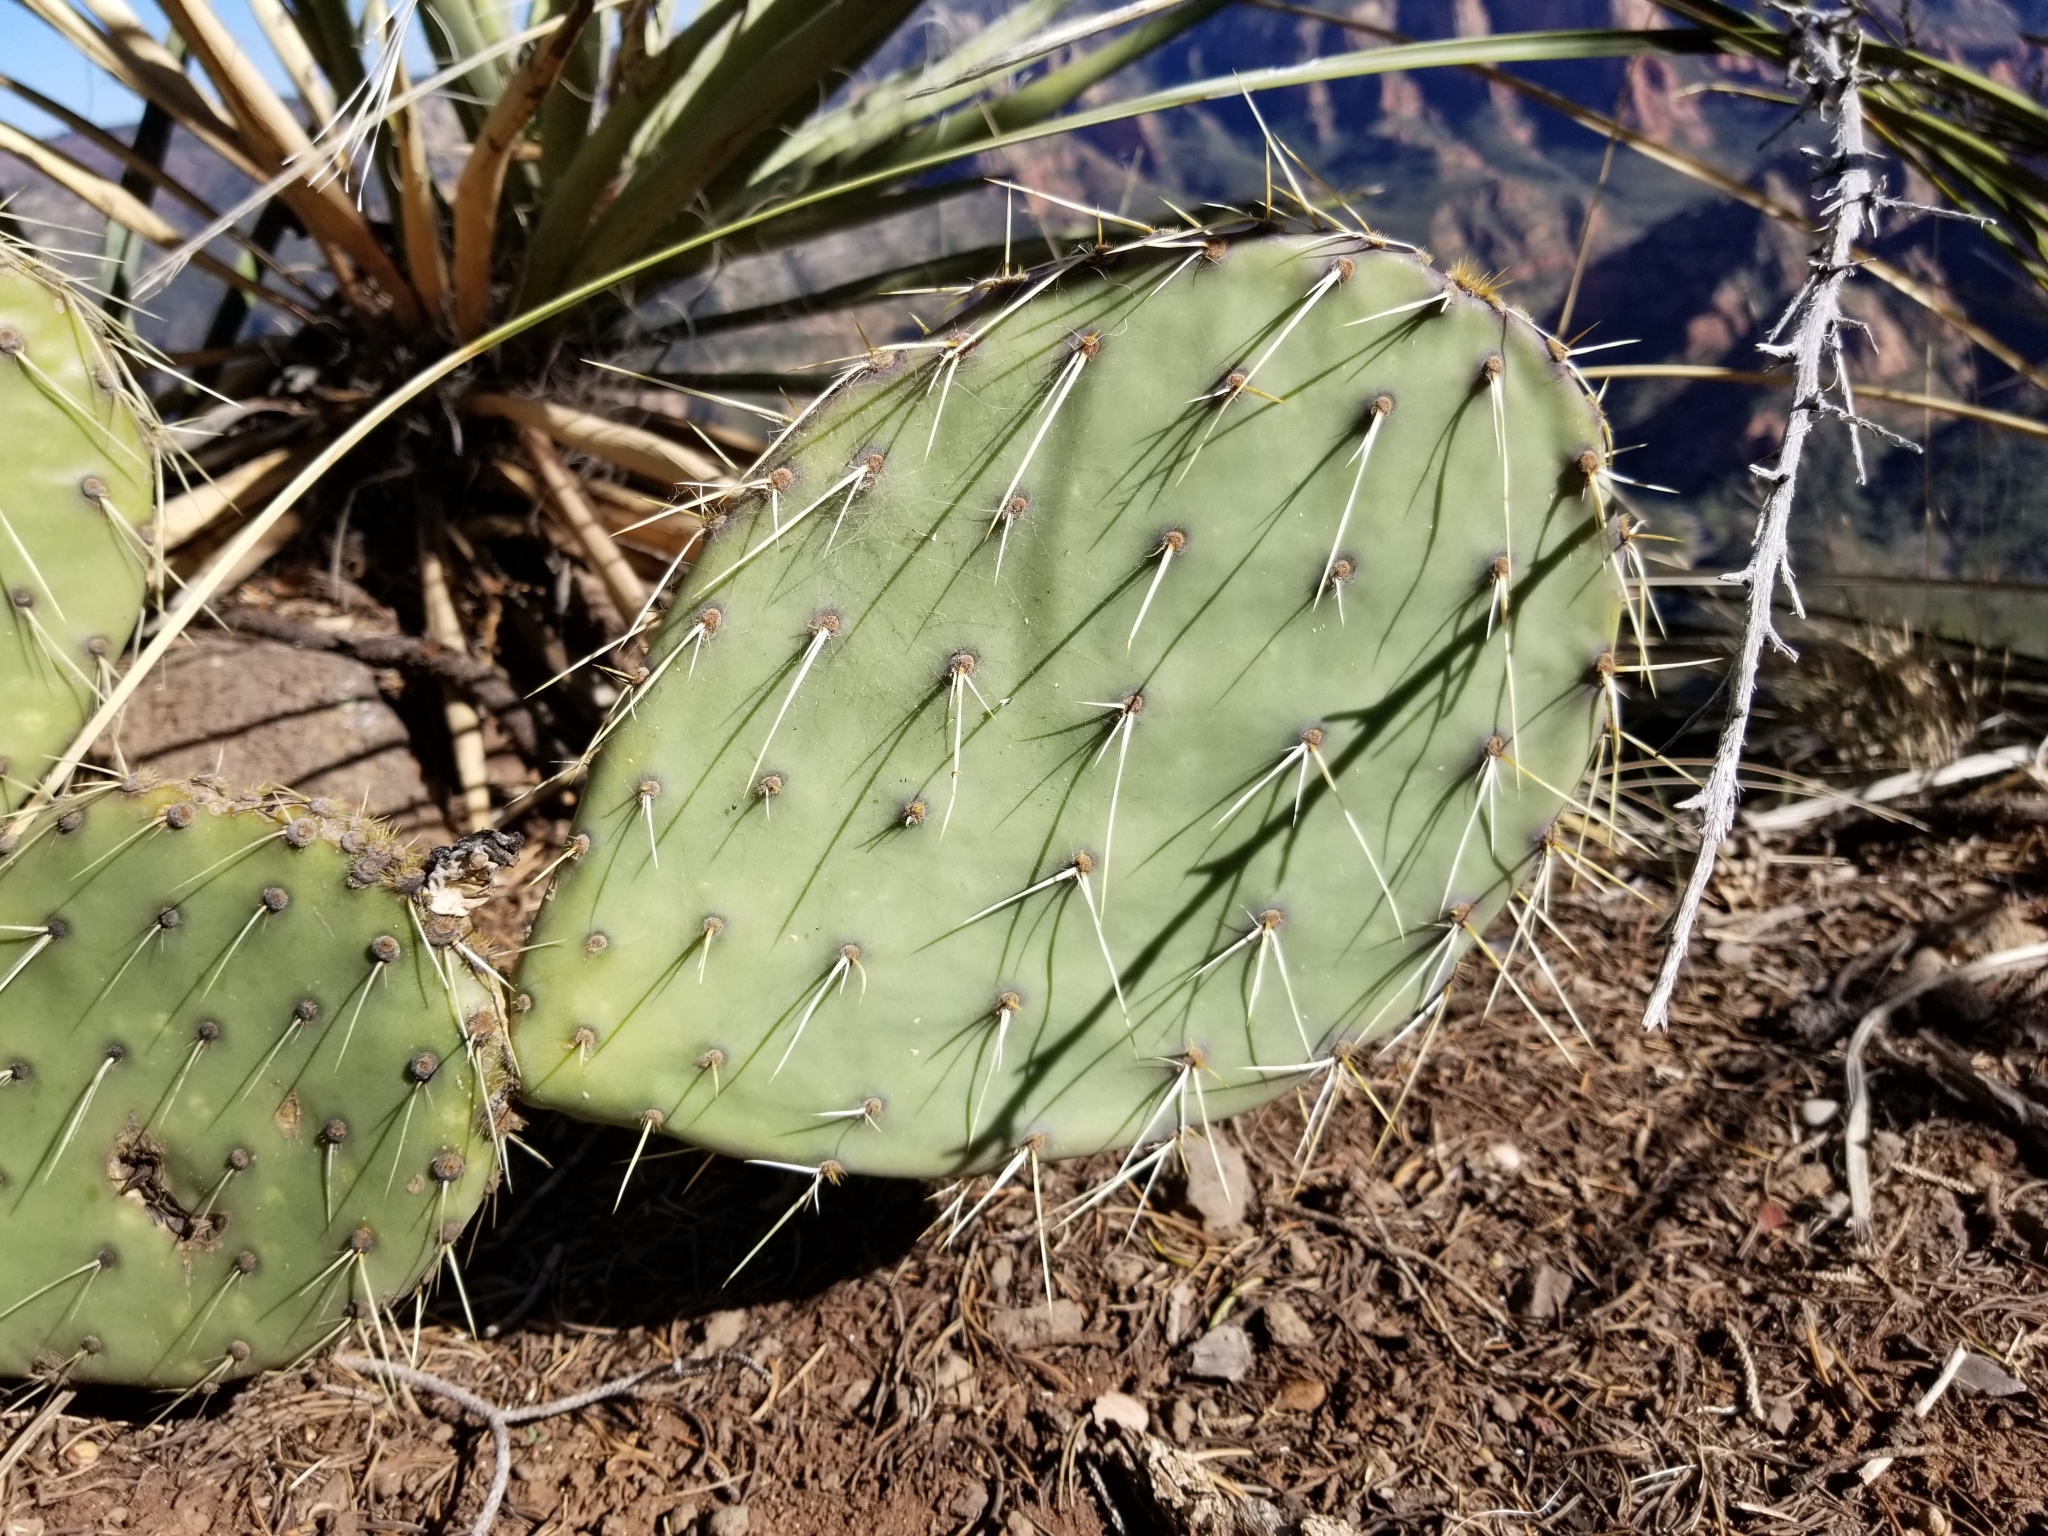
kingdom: Plantae
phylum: Tracheophyta
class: Magnoliopsida
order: Caryophyllales
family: Cactaceae
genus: Opuntia
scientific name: Opuntia engelmannii
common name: Cactus-apple
